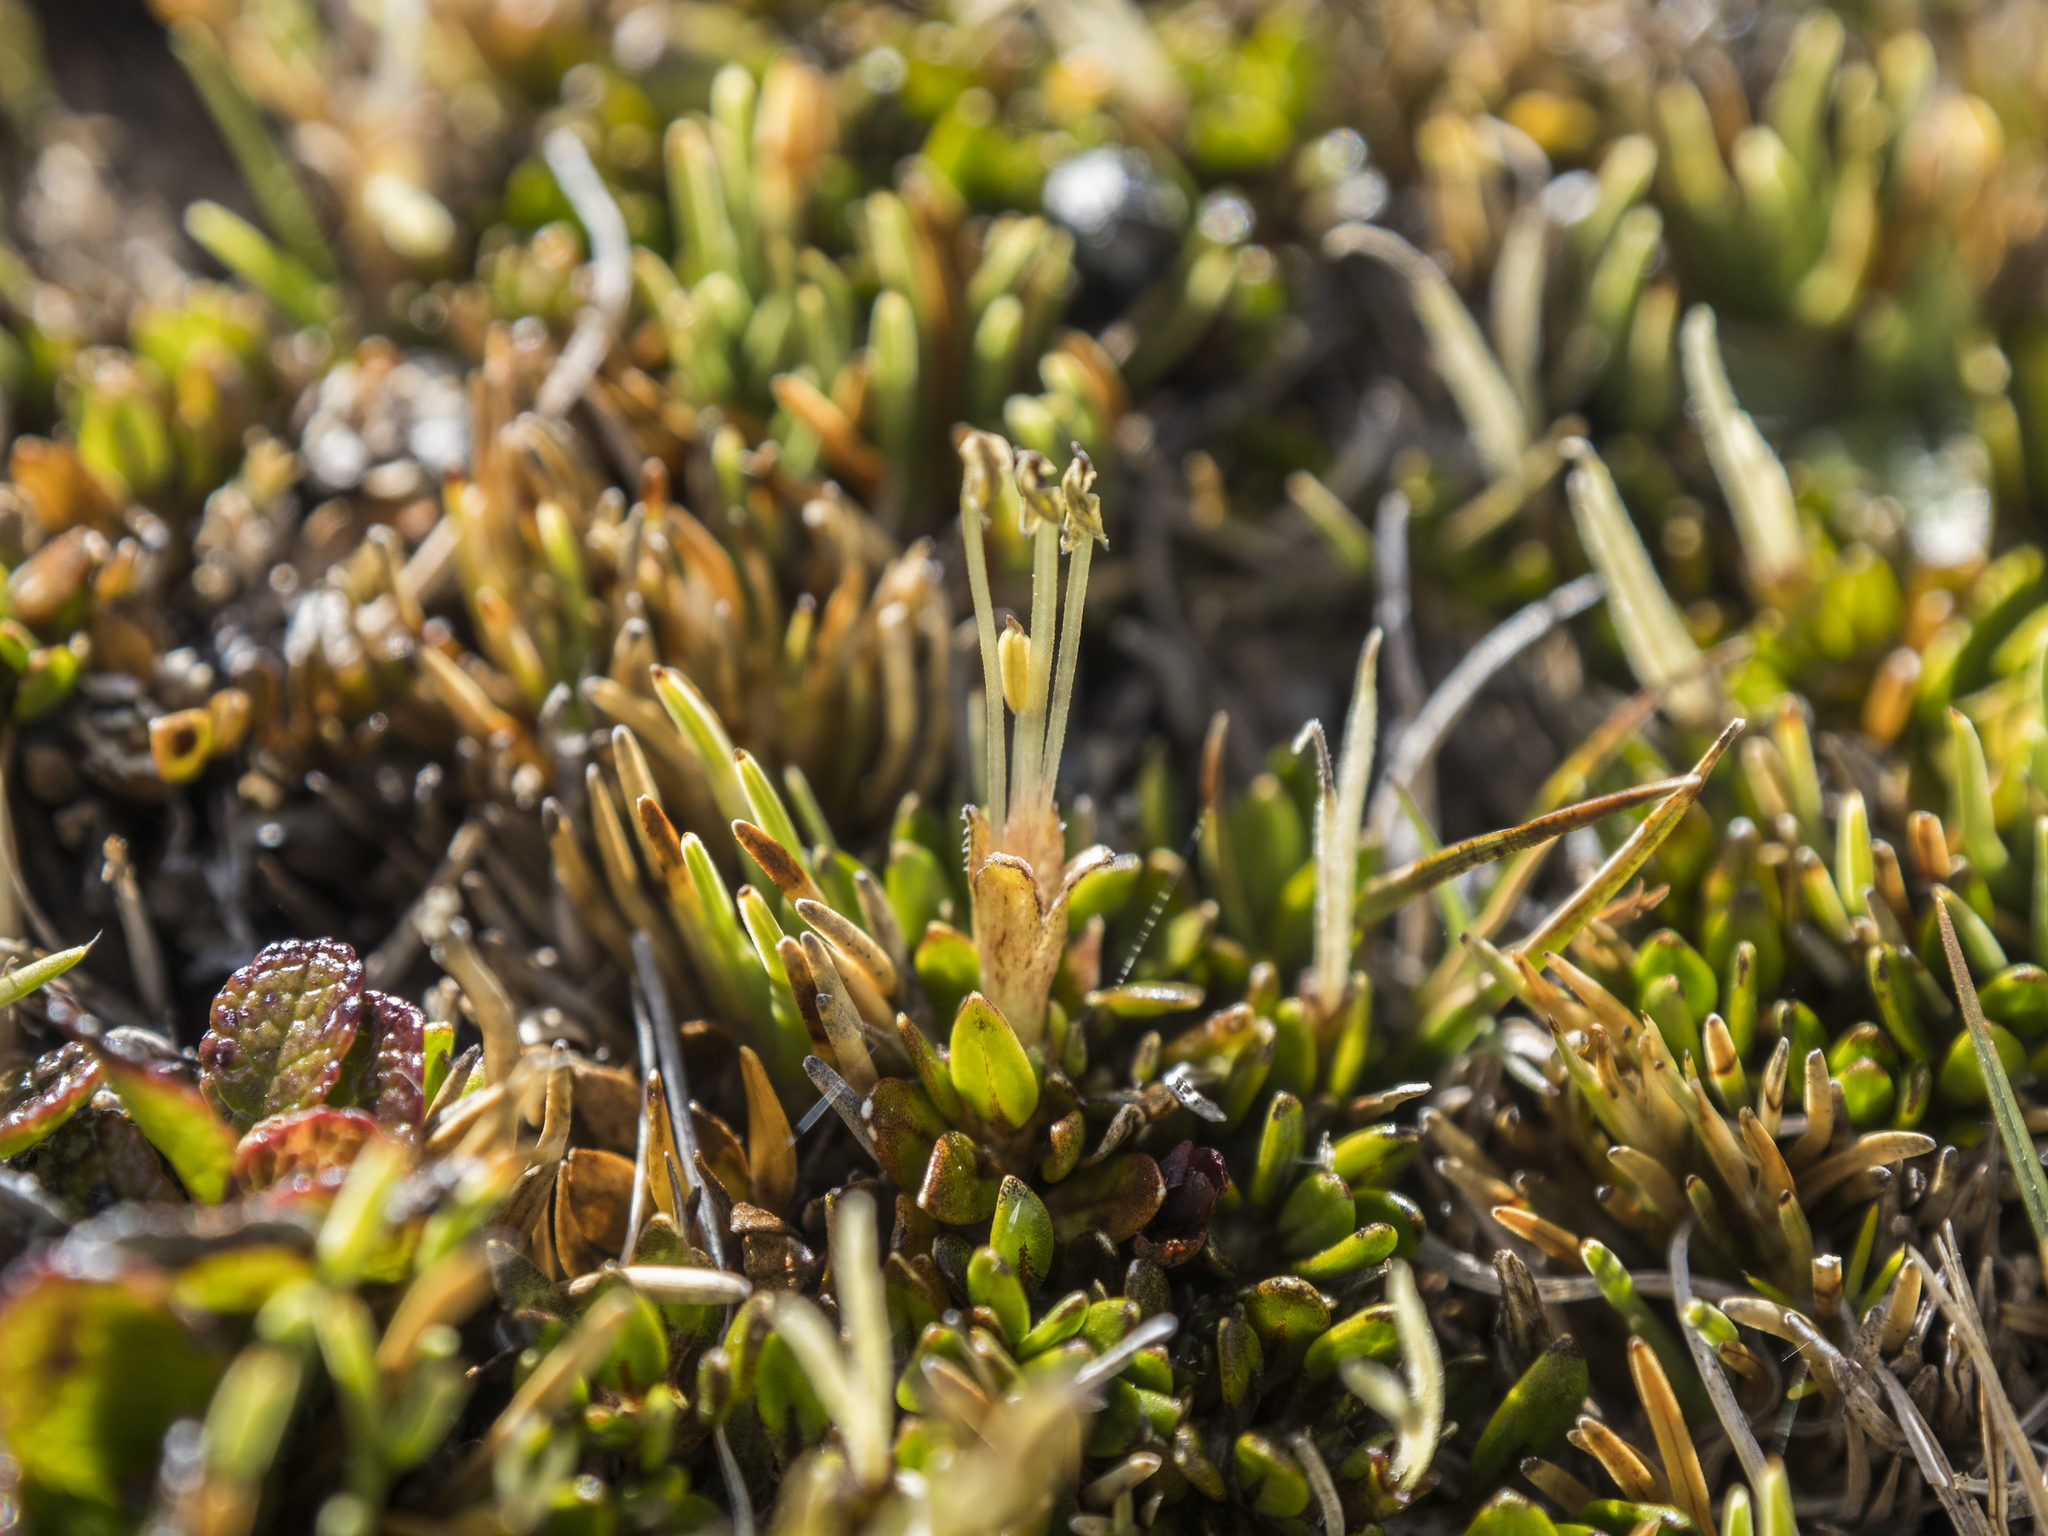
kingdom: Plantae
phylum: Tracheophyta
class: Magnoliopsida
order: Gentianales
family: Rubiaceae
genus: Coprosma
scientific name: Coprosma atropurpurea
